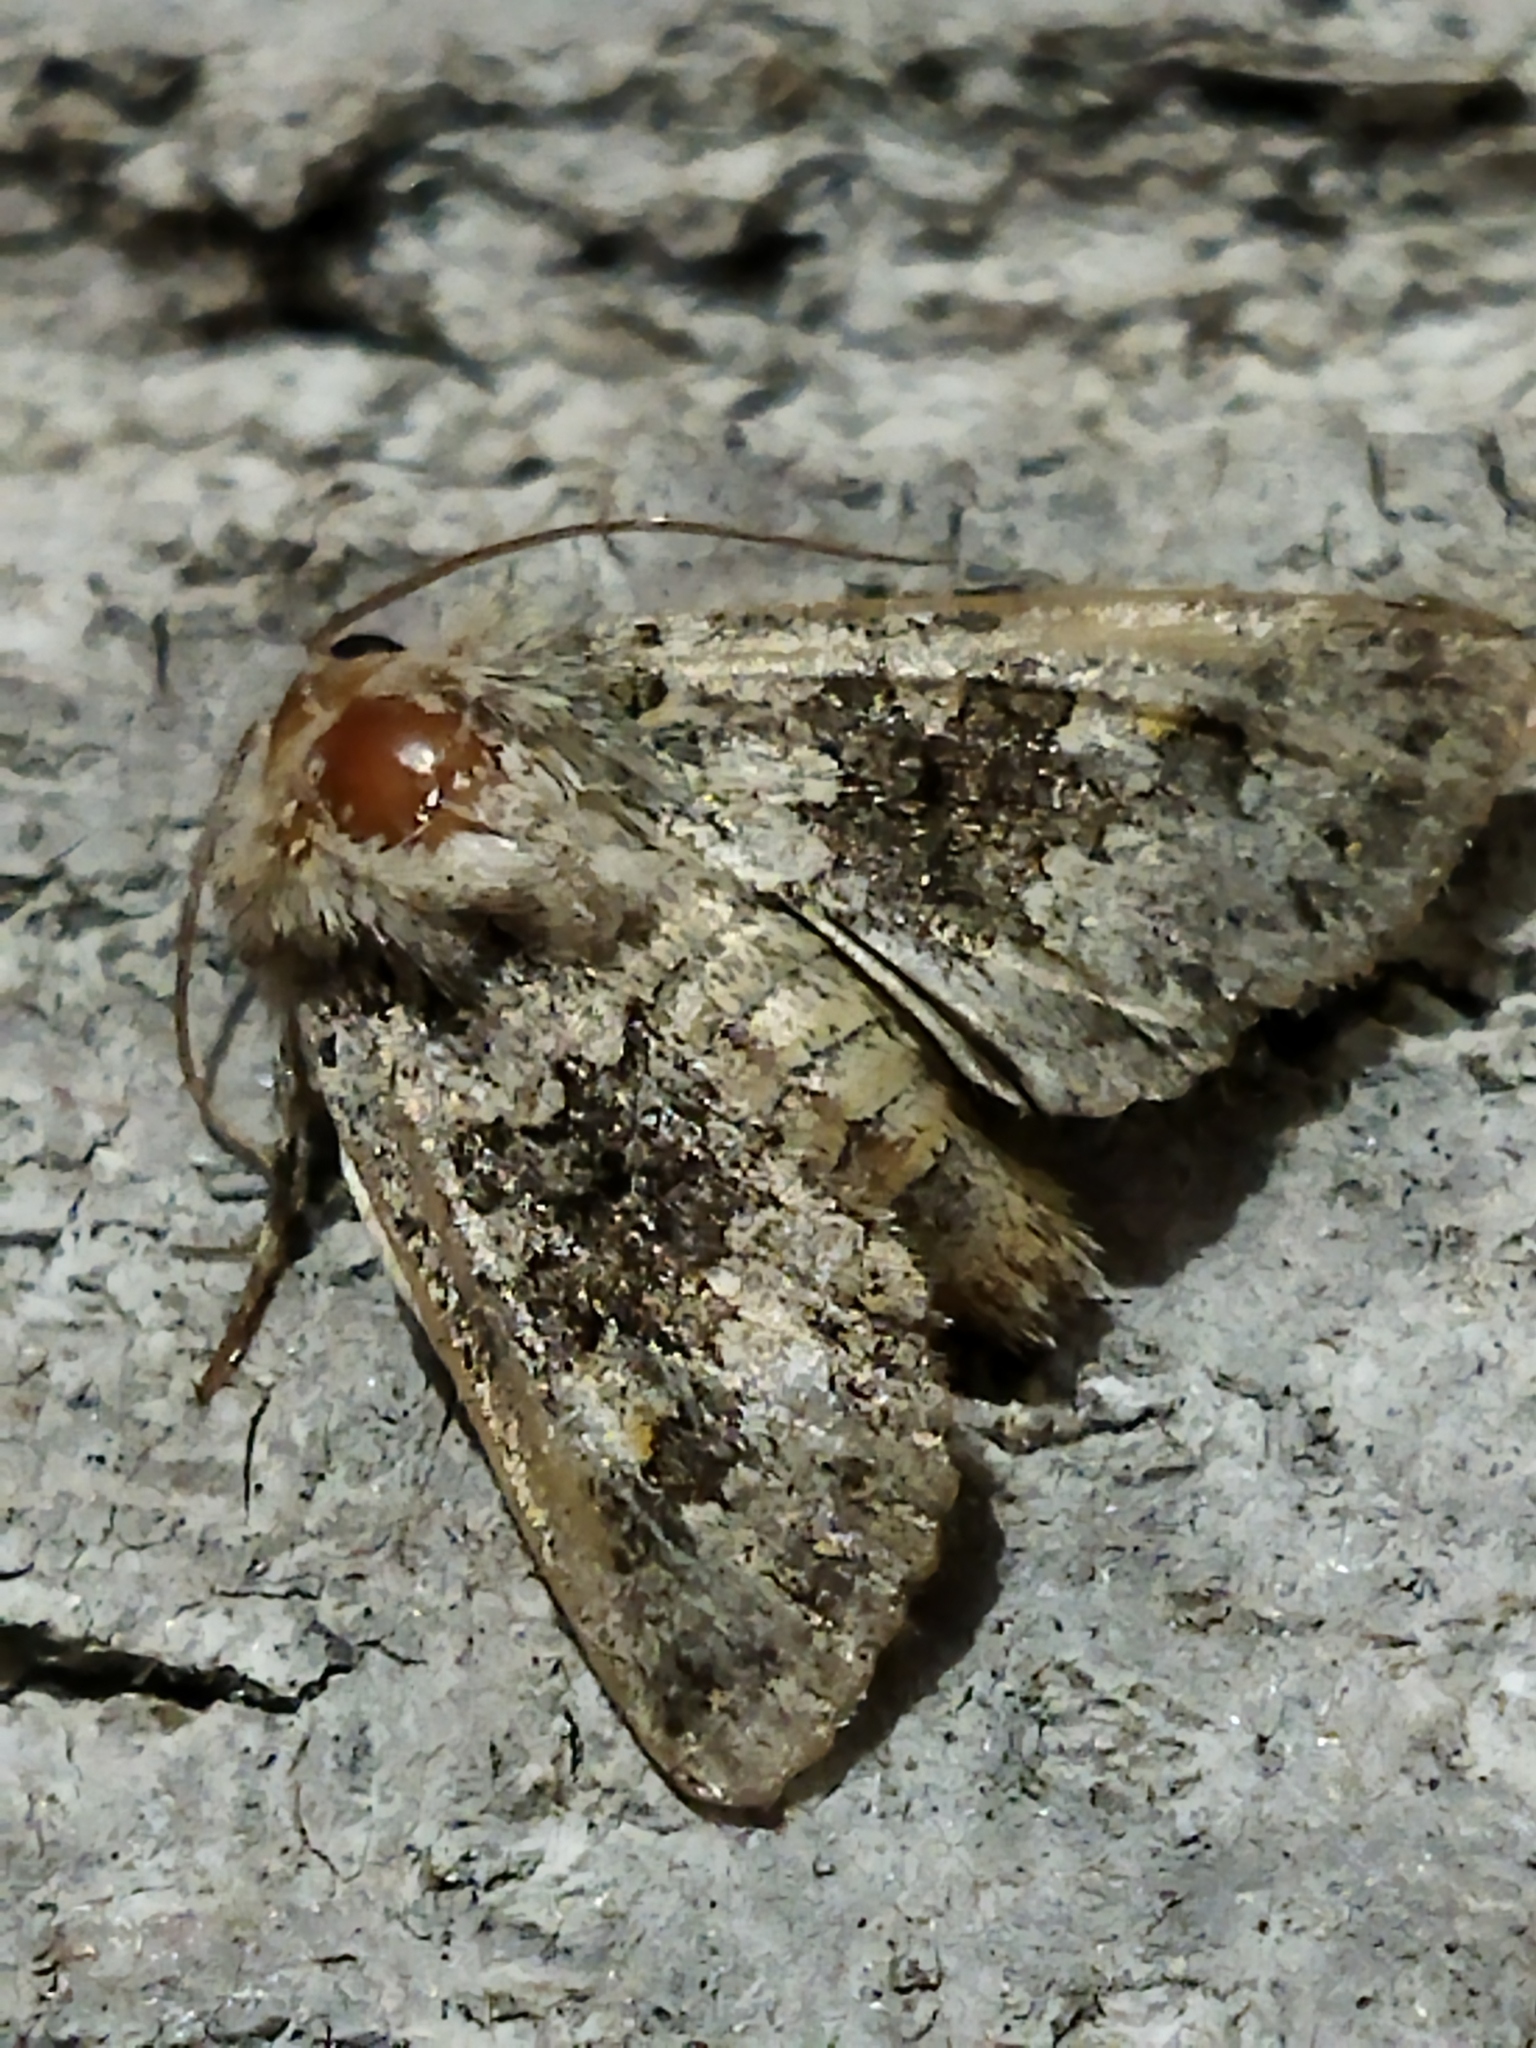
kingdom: Animalia
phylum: Arthropoda
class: Insecta
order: Lepidoptera
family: Noctuidae
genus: Hecatera
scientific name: Hecatera dysodea
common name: Small ranunculus
